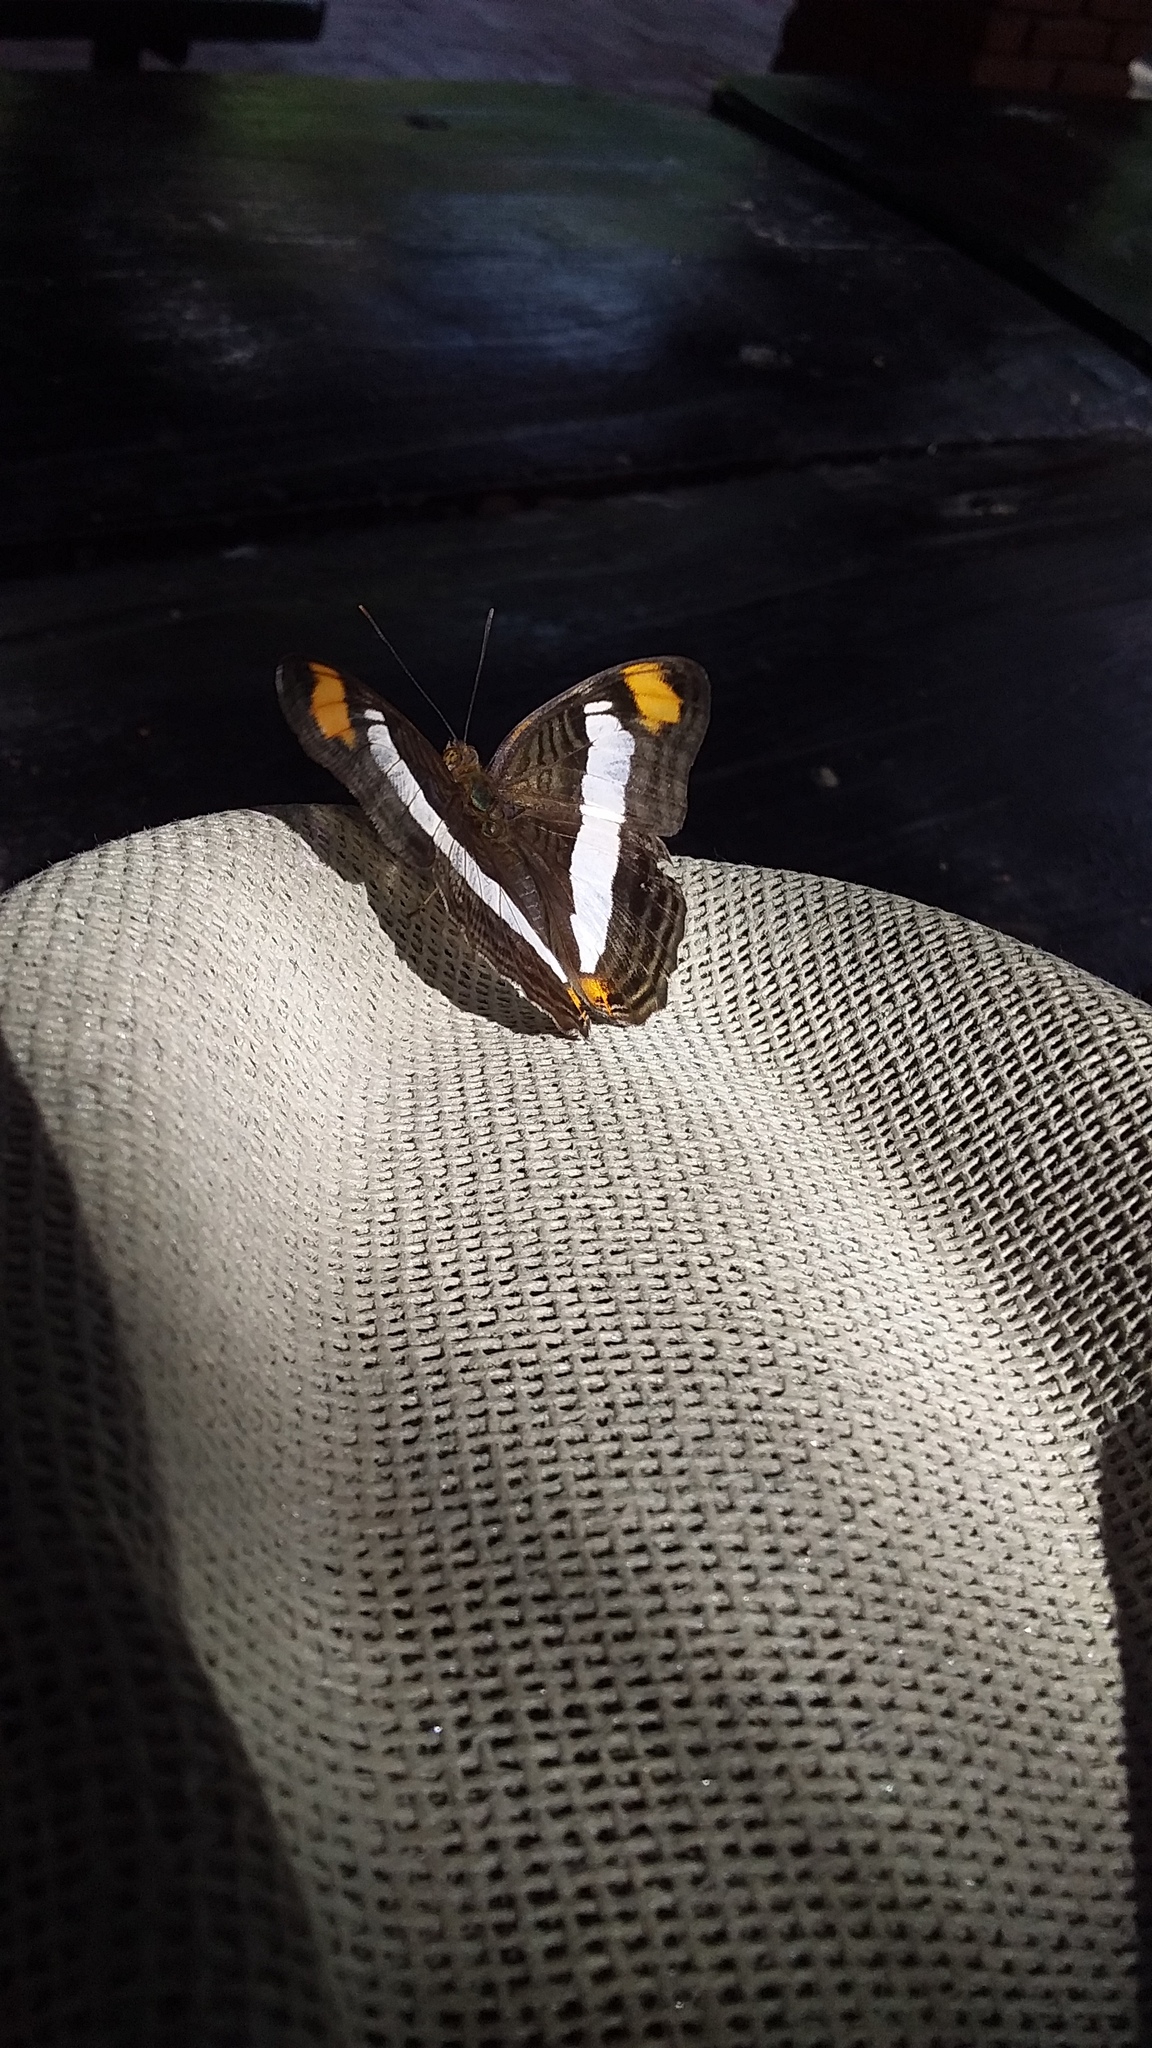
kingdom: Animalia
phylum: Arthropoda
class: Insecta
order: Lepidoptera
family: Nymphalidae
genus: Limenitis
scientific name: Limenitis Adelpha basiloides
